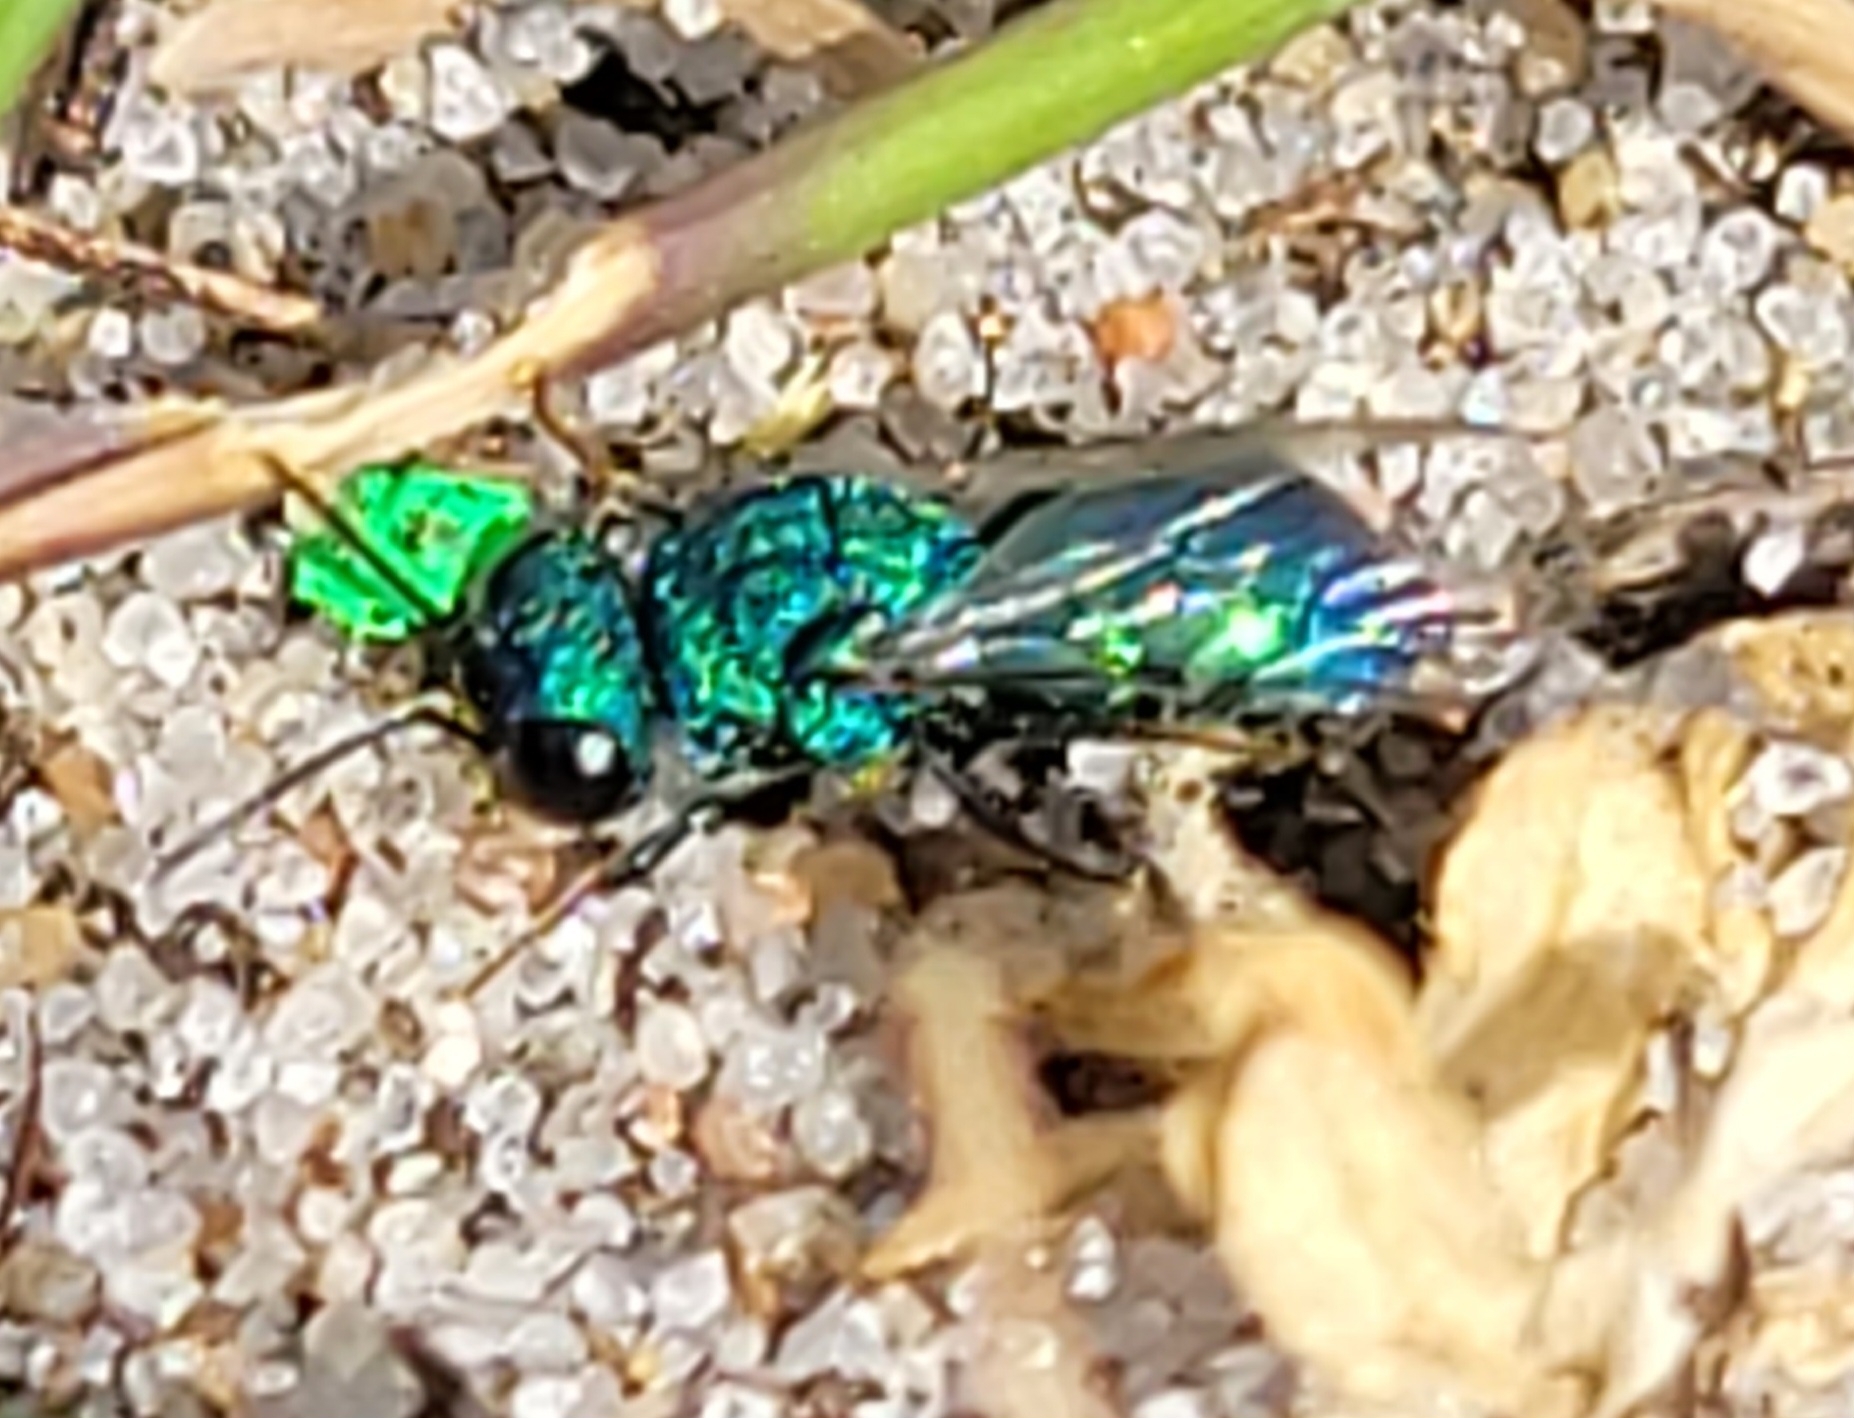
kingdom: Animalia
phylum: Arthropoda
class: Insecta
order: Hymenoptera
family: Chrysididae
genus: Spinolia
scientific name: Spinolia unicolor
